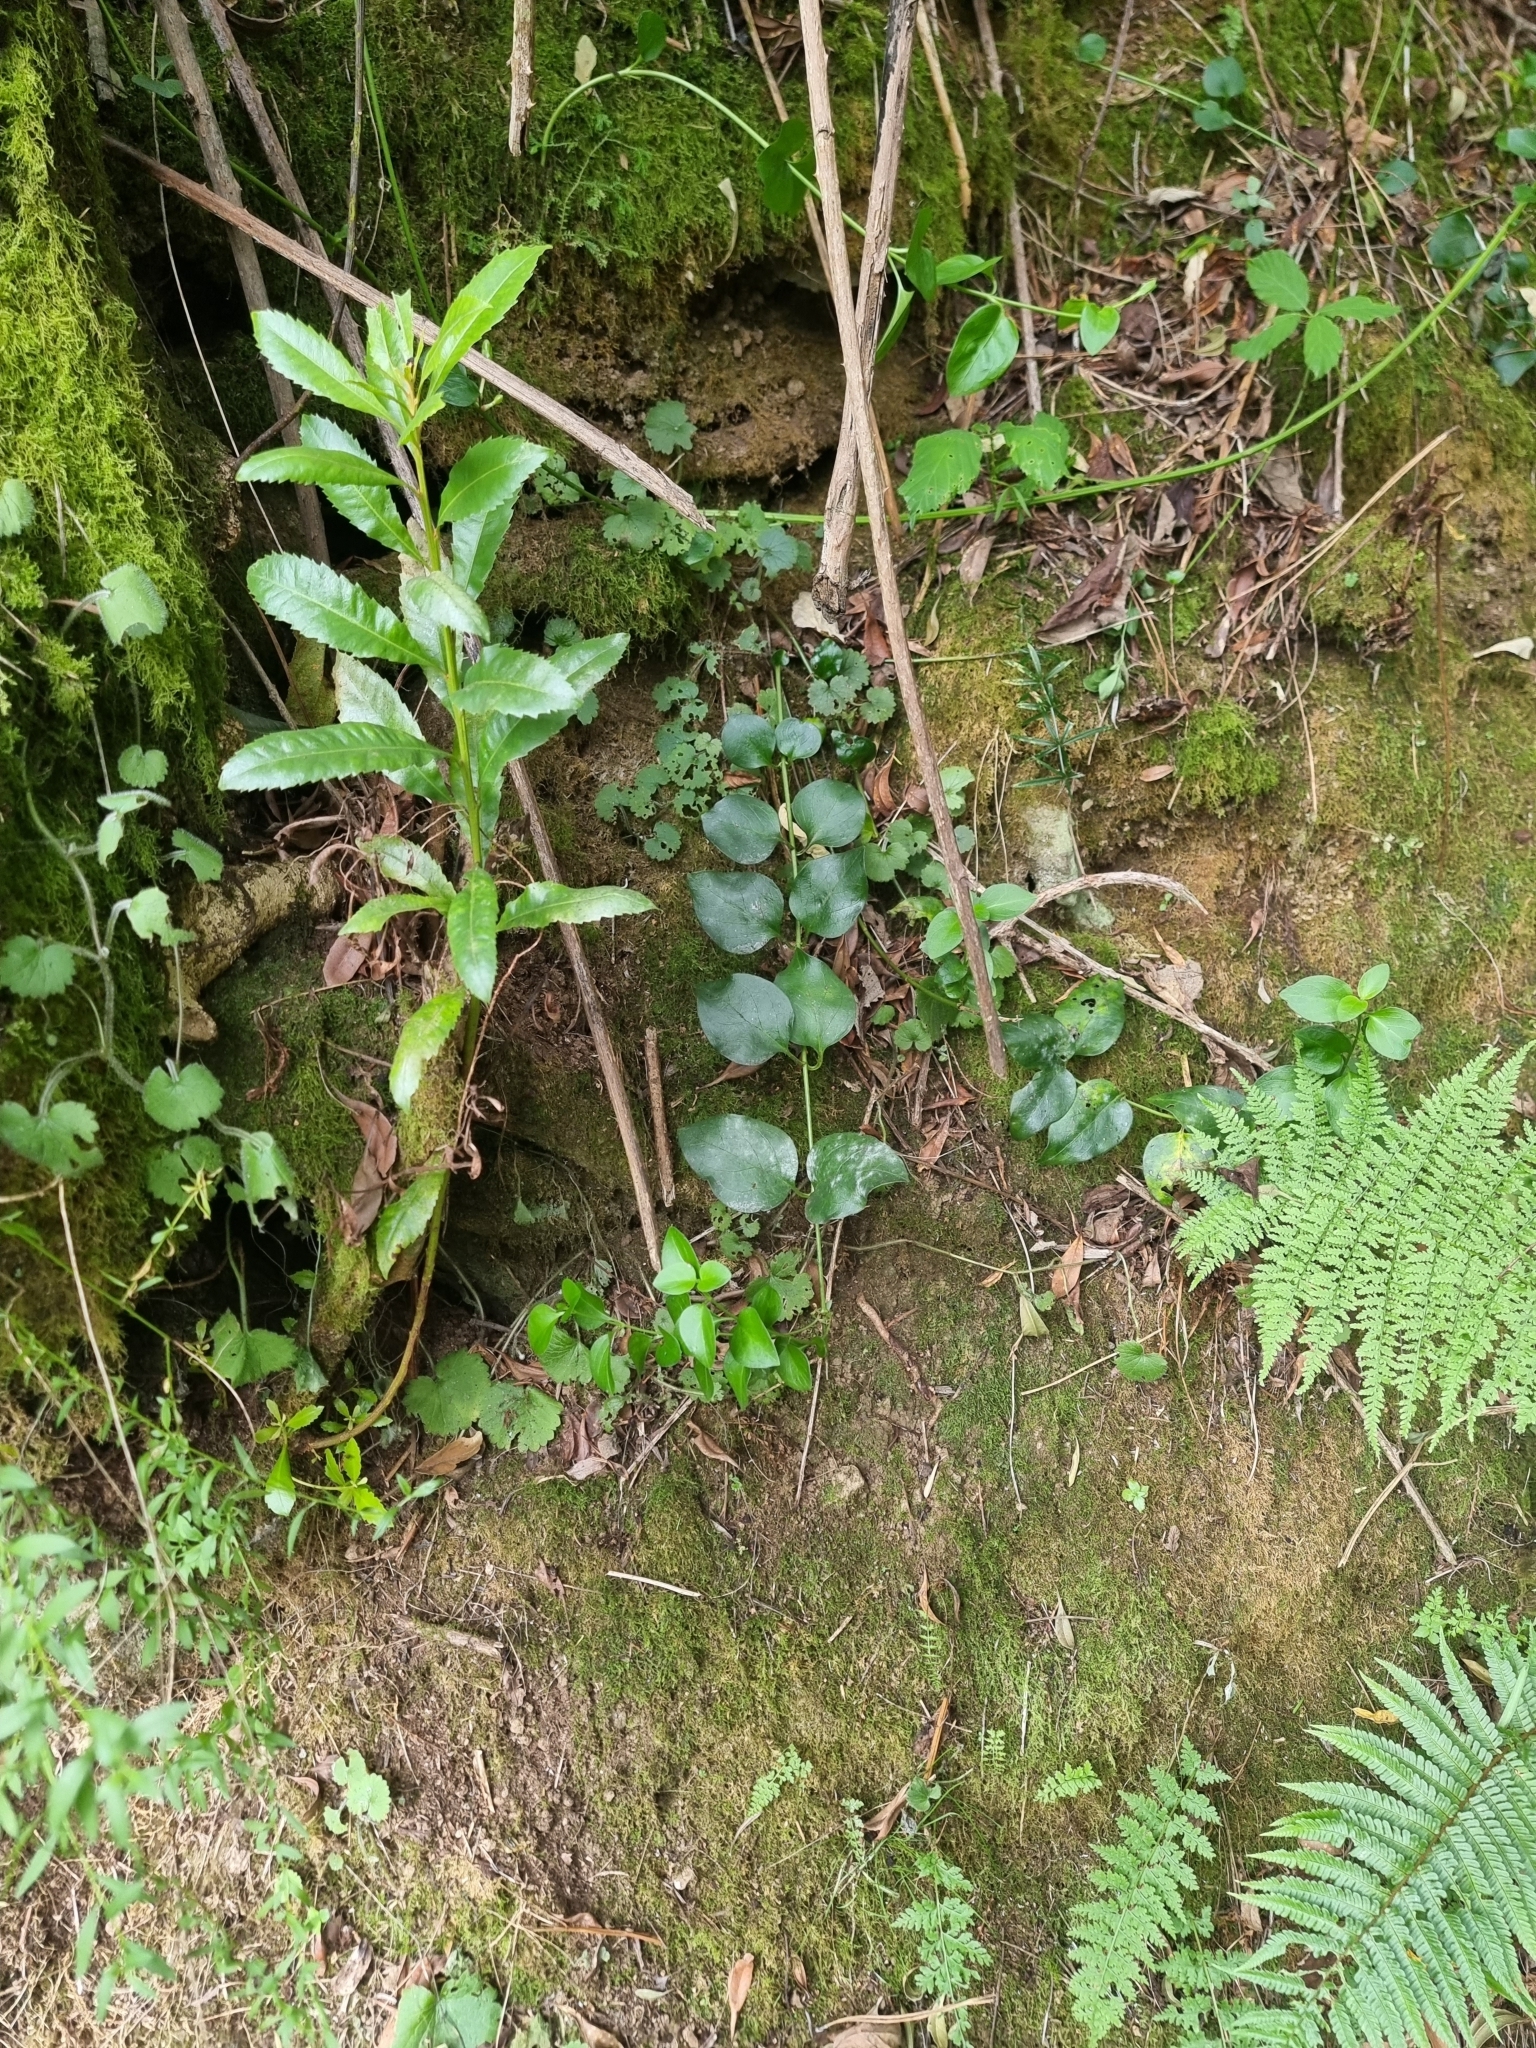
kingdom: Plantae
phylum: Tracheophyta
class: Magnoliopsida
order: Gentianales
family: Apocynaceae
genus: Vinca
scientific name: Vinca major
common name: Greater periwinkle
